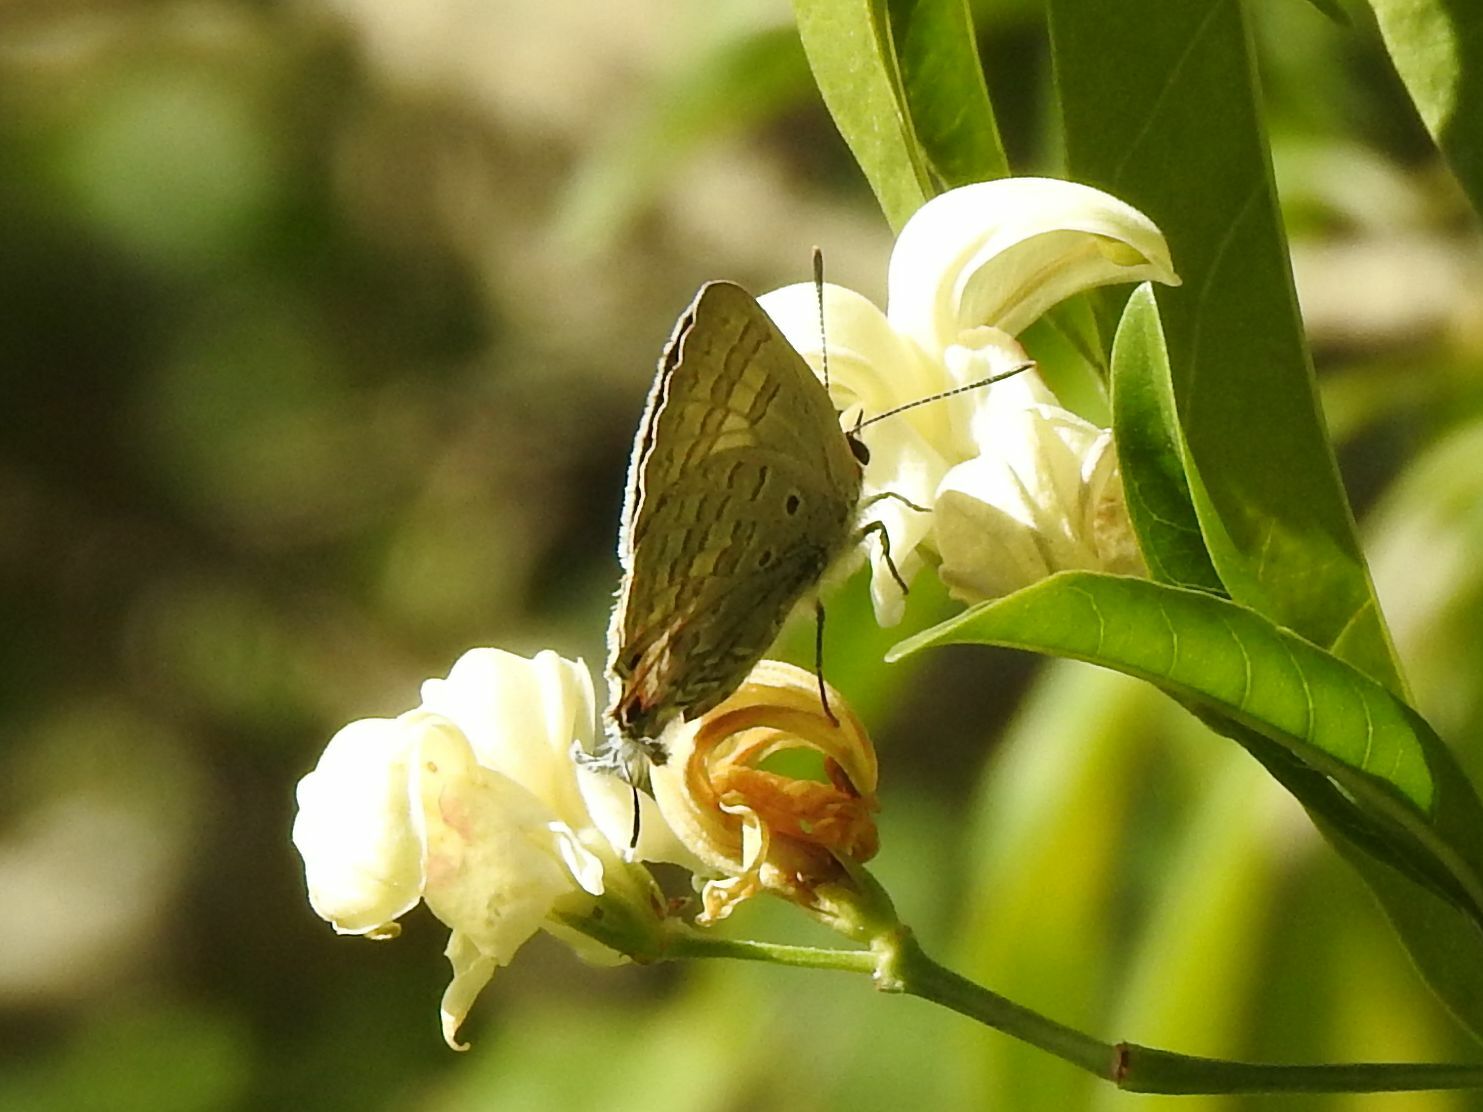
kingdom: Animalia
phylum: Arthropoda
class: Insecta
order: Lepidoptera
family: Lycaenidae
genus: Deudorix
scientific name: Deudorix antalus
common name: Brown playboy
